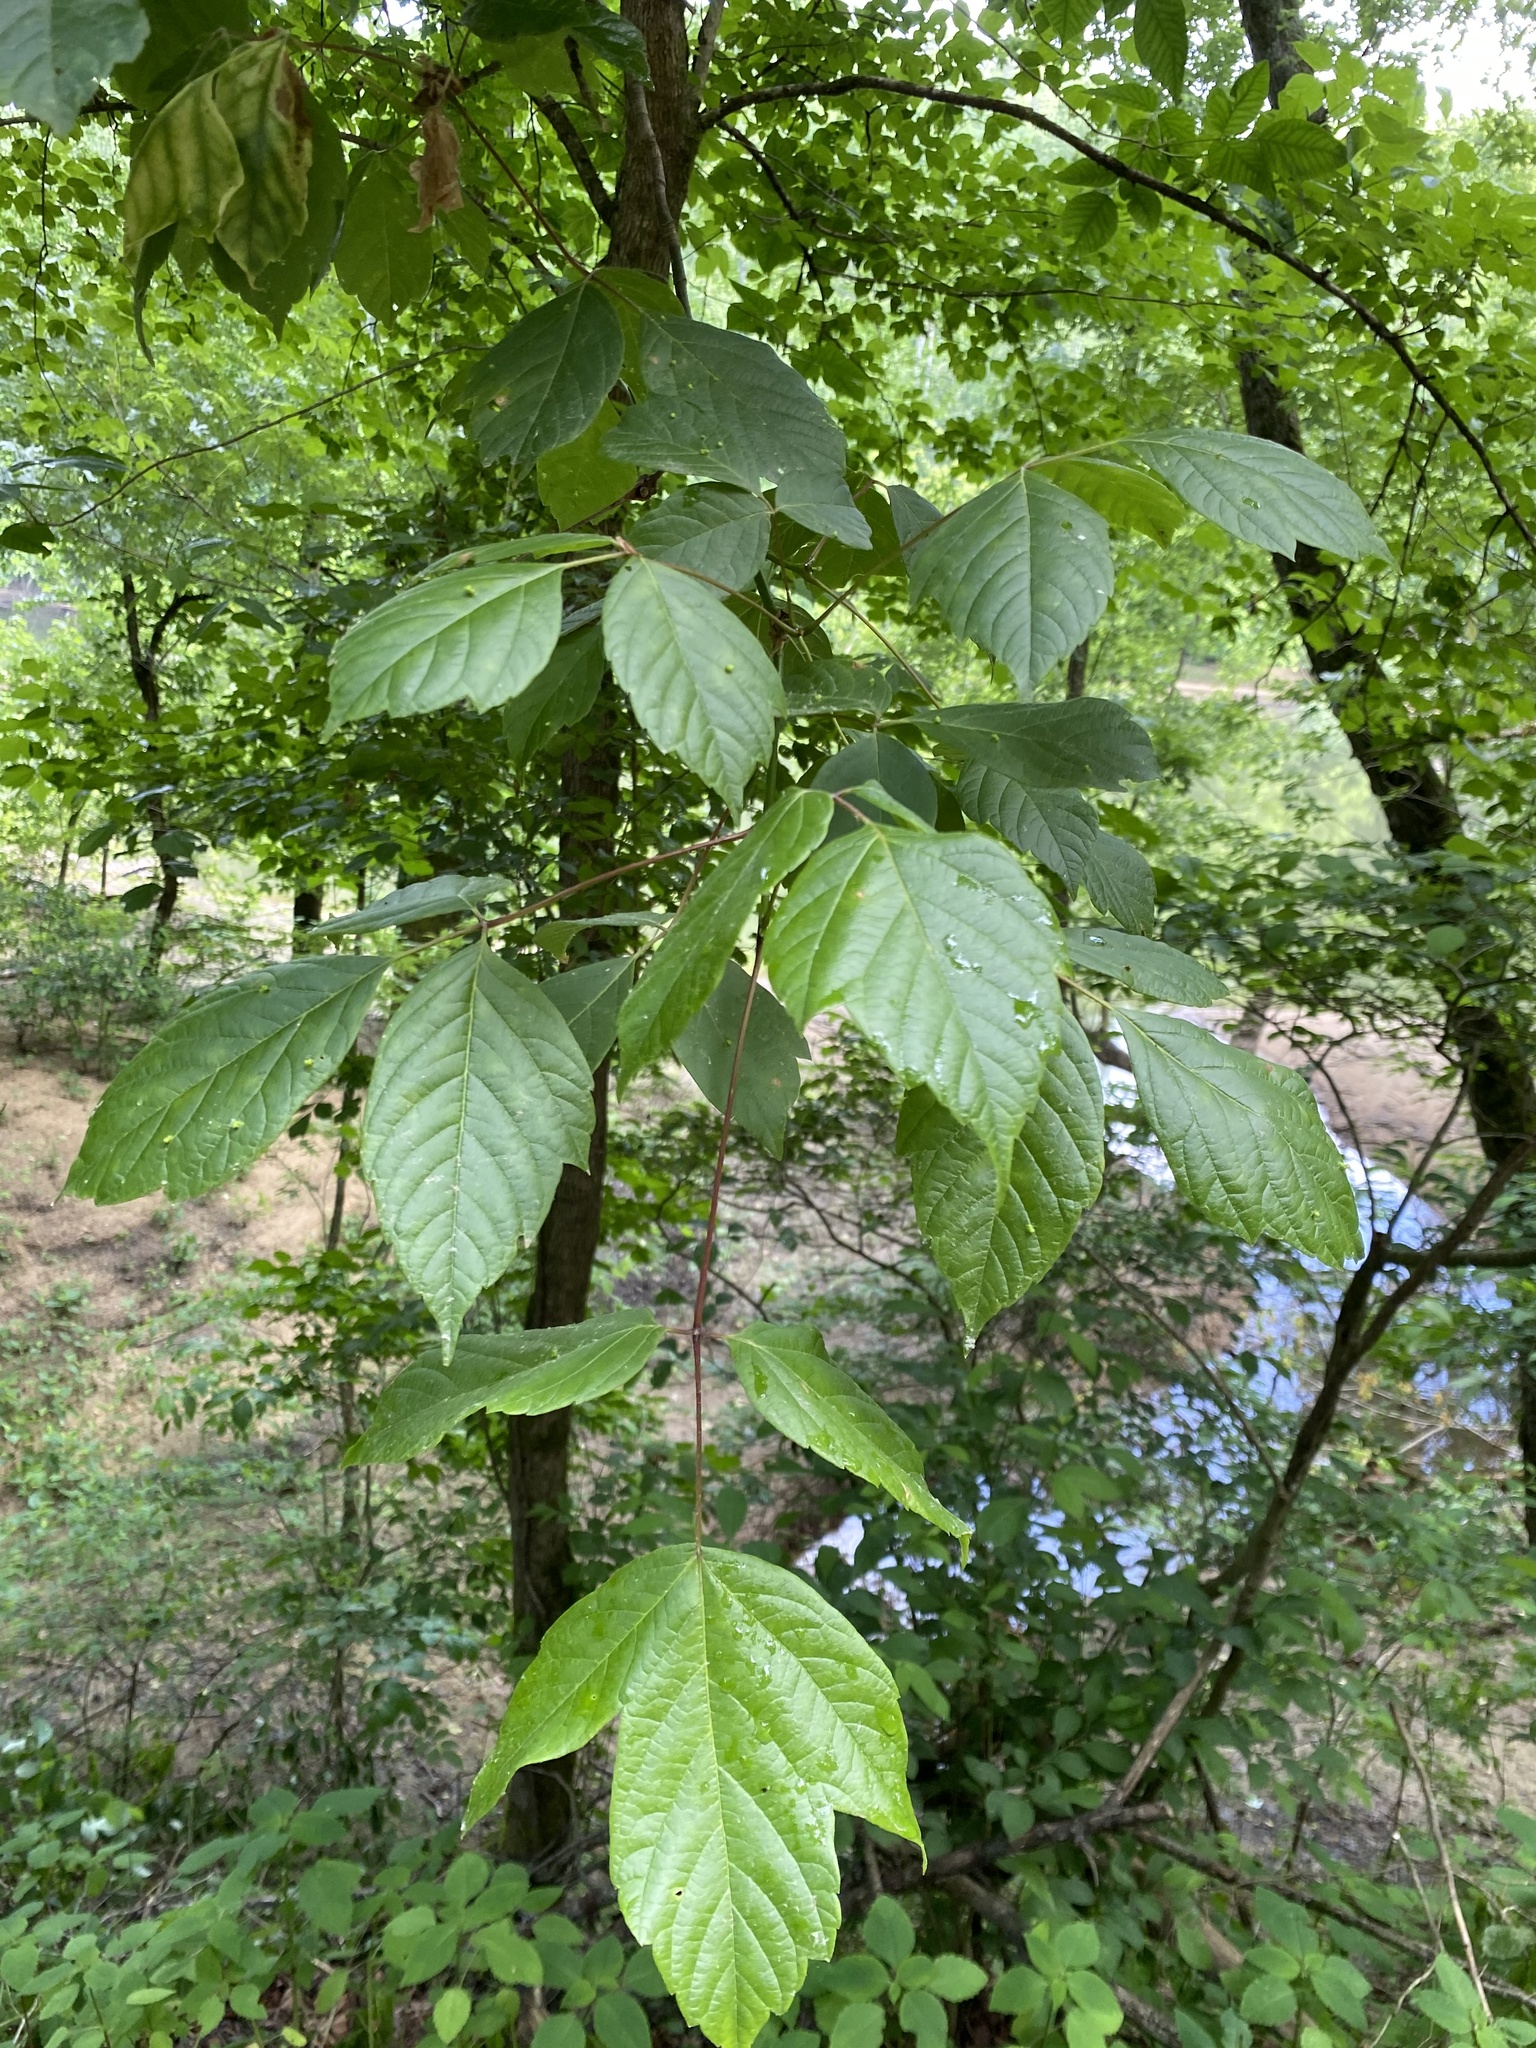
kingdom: Plantae
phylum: Tracheophyta
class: Magnoliopsida
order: Sapindales
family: Sapindaceae
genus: Acer
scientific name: Acer negundo
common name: Ashleaf maple
